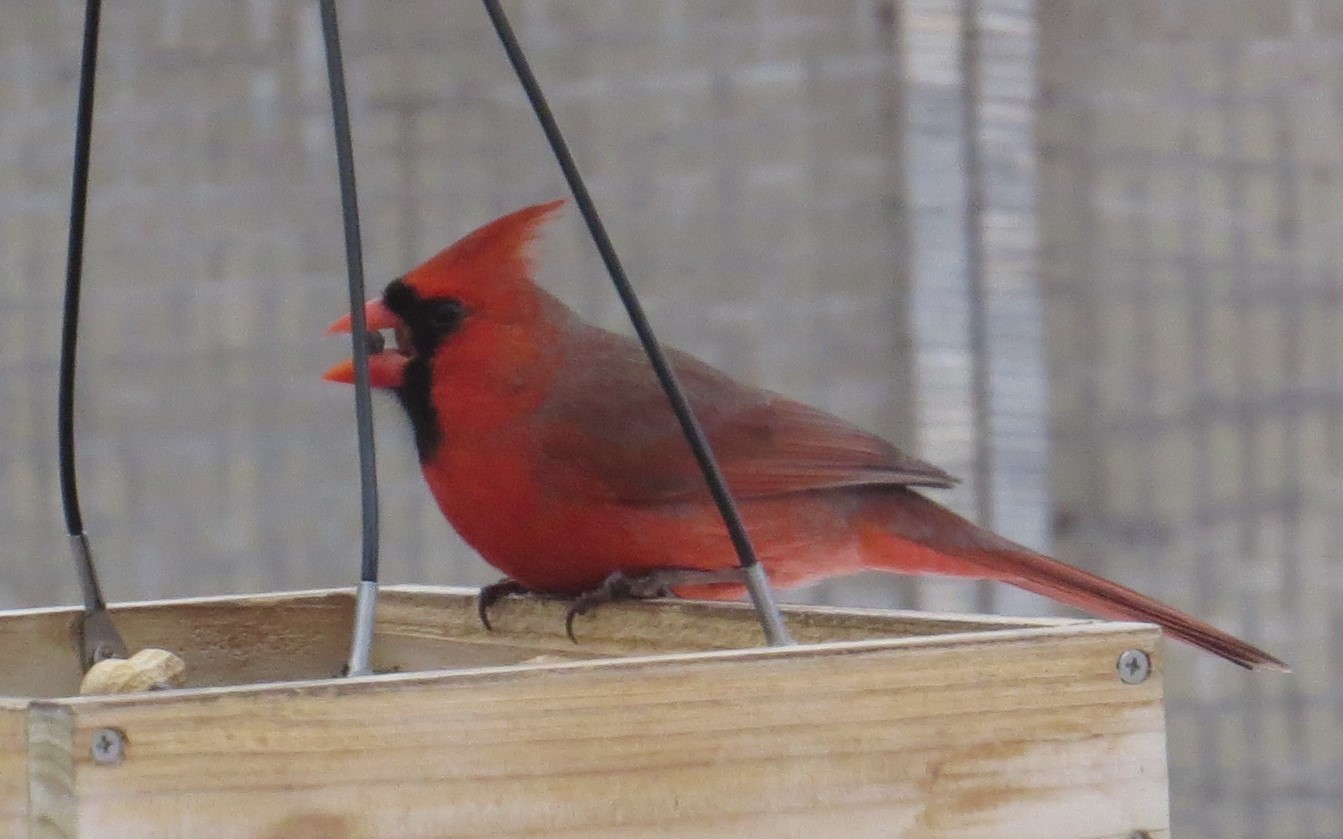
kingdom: Animalia
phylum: Chordata
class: Aves
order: Passeriformes
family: Cardinalidae
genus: Cardinalis
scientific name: Cardinalis cardinalis
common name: Northern cardinal
